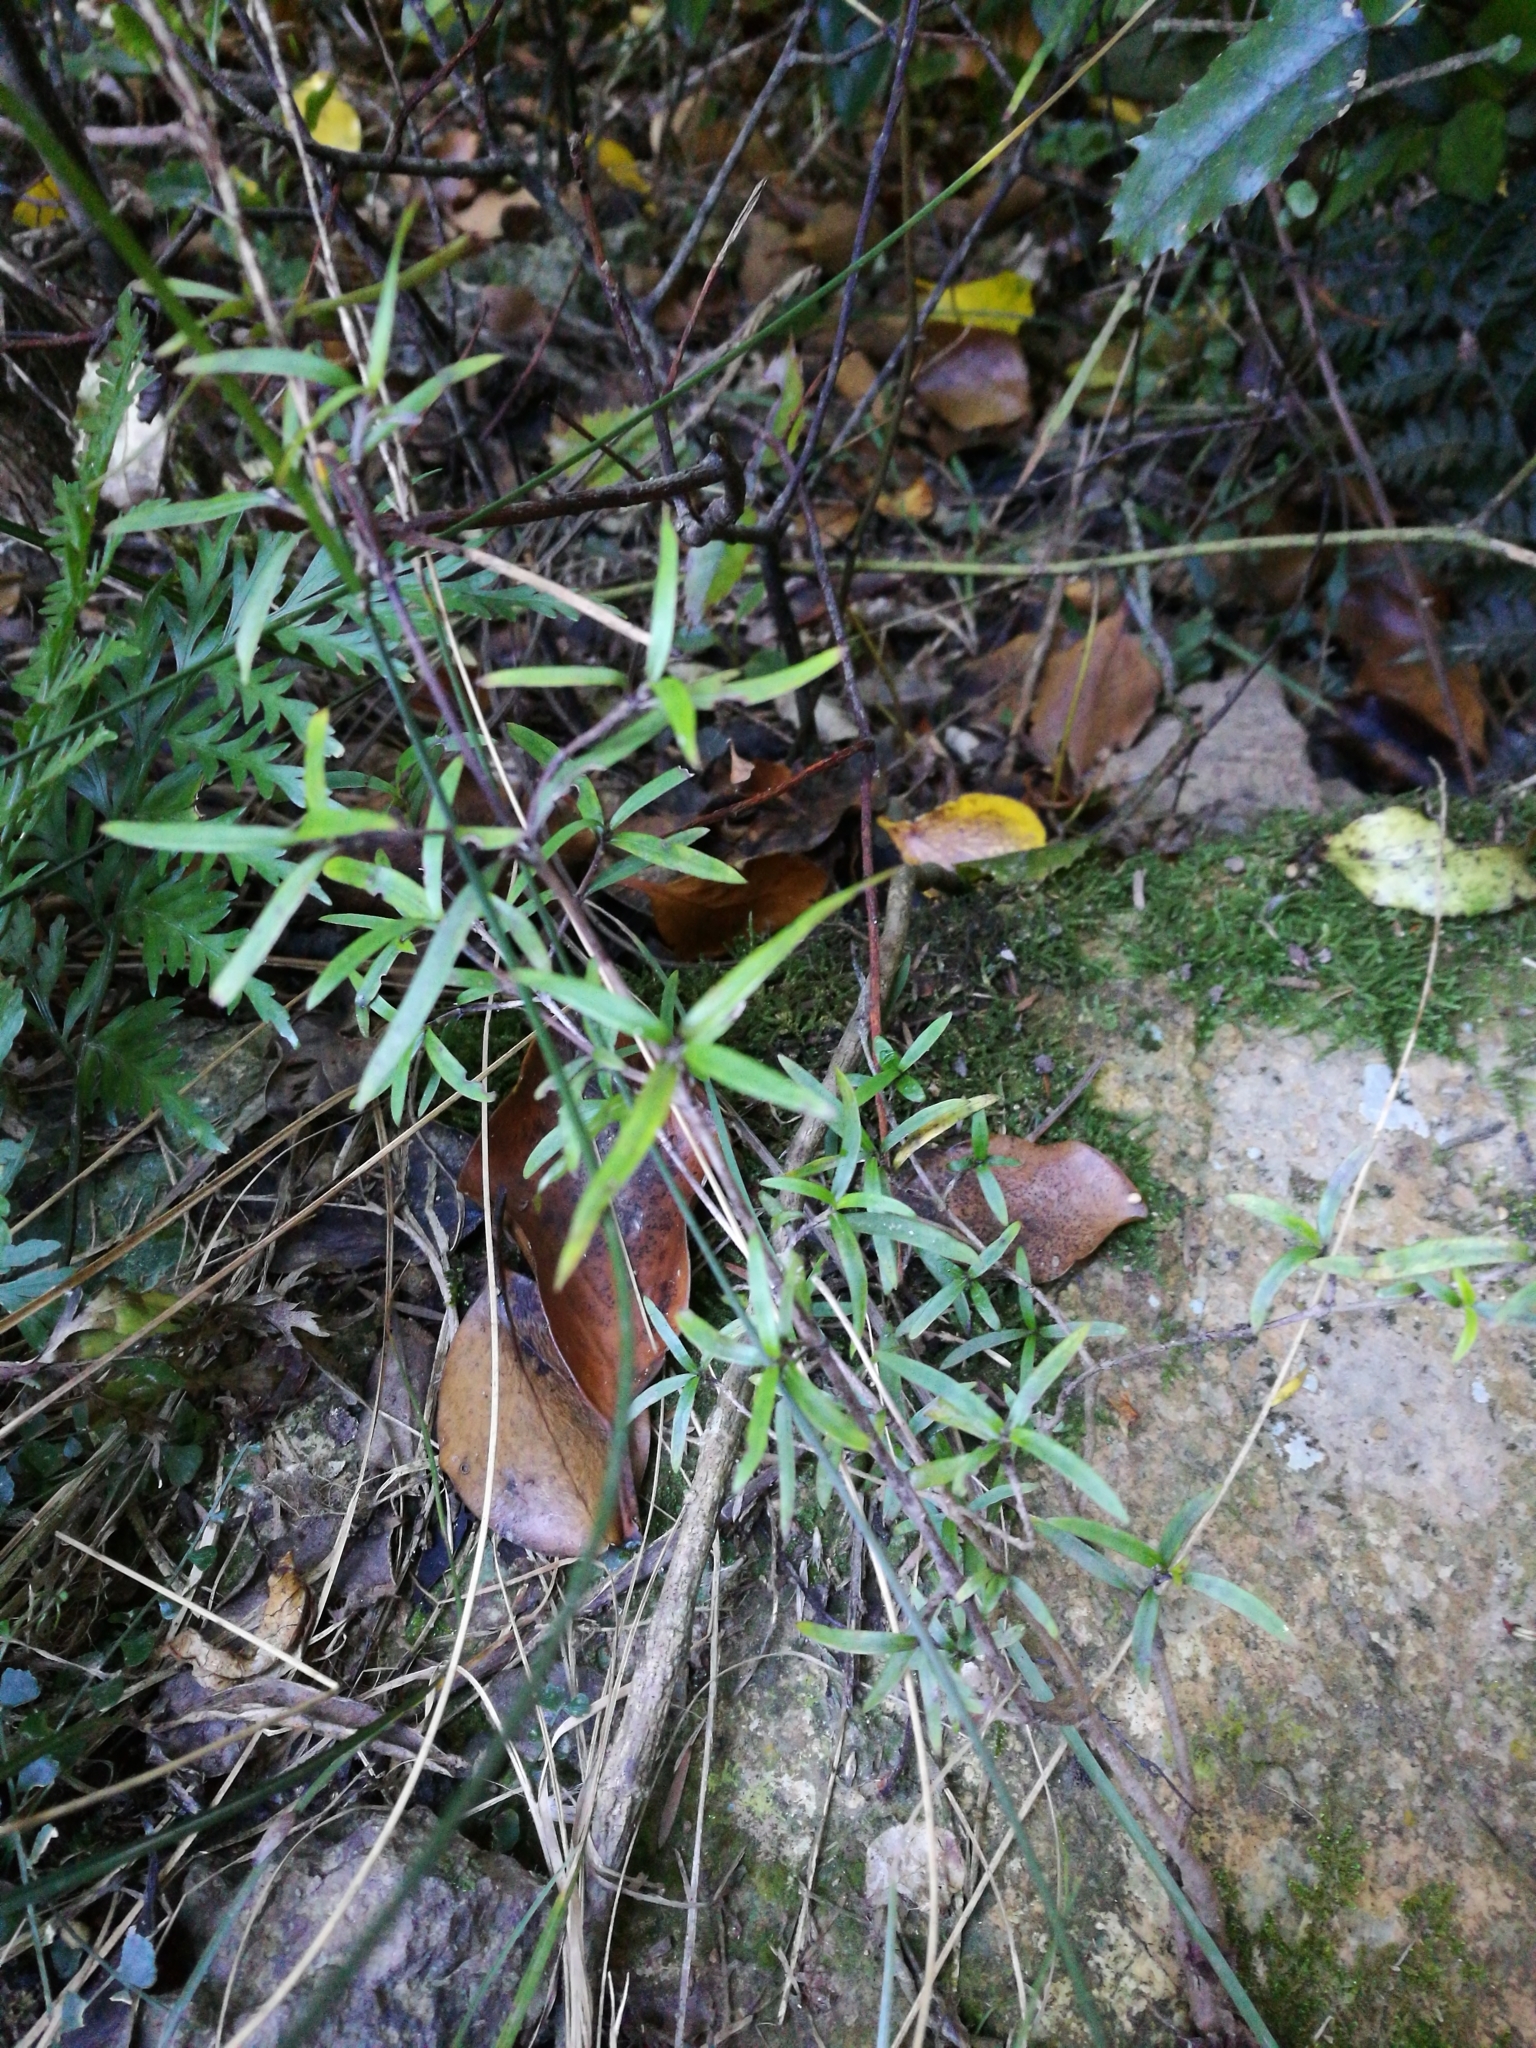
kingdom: Plantae
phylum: Tracheophyta
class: Magnoliopsida
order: Gentianales
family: Rubiaceae
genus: Coprosma
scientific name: Coprosma linariifolia
